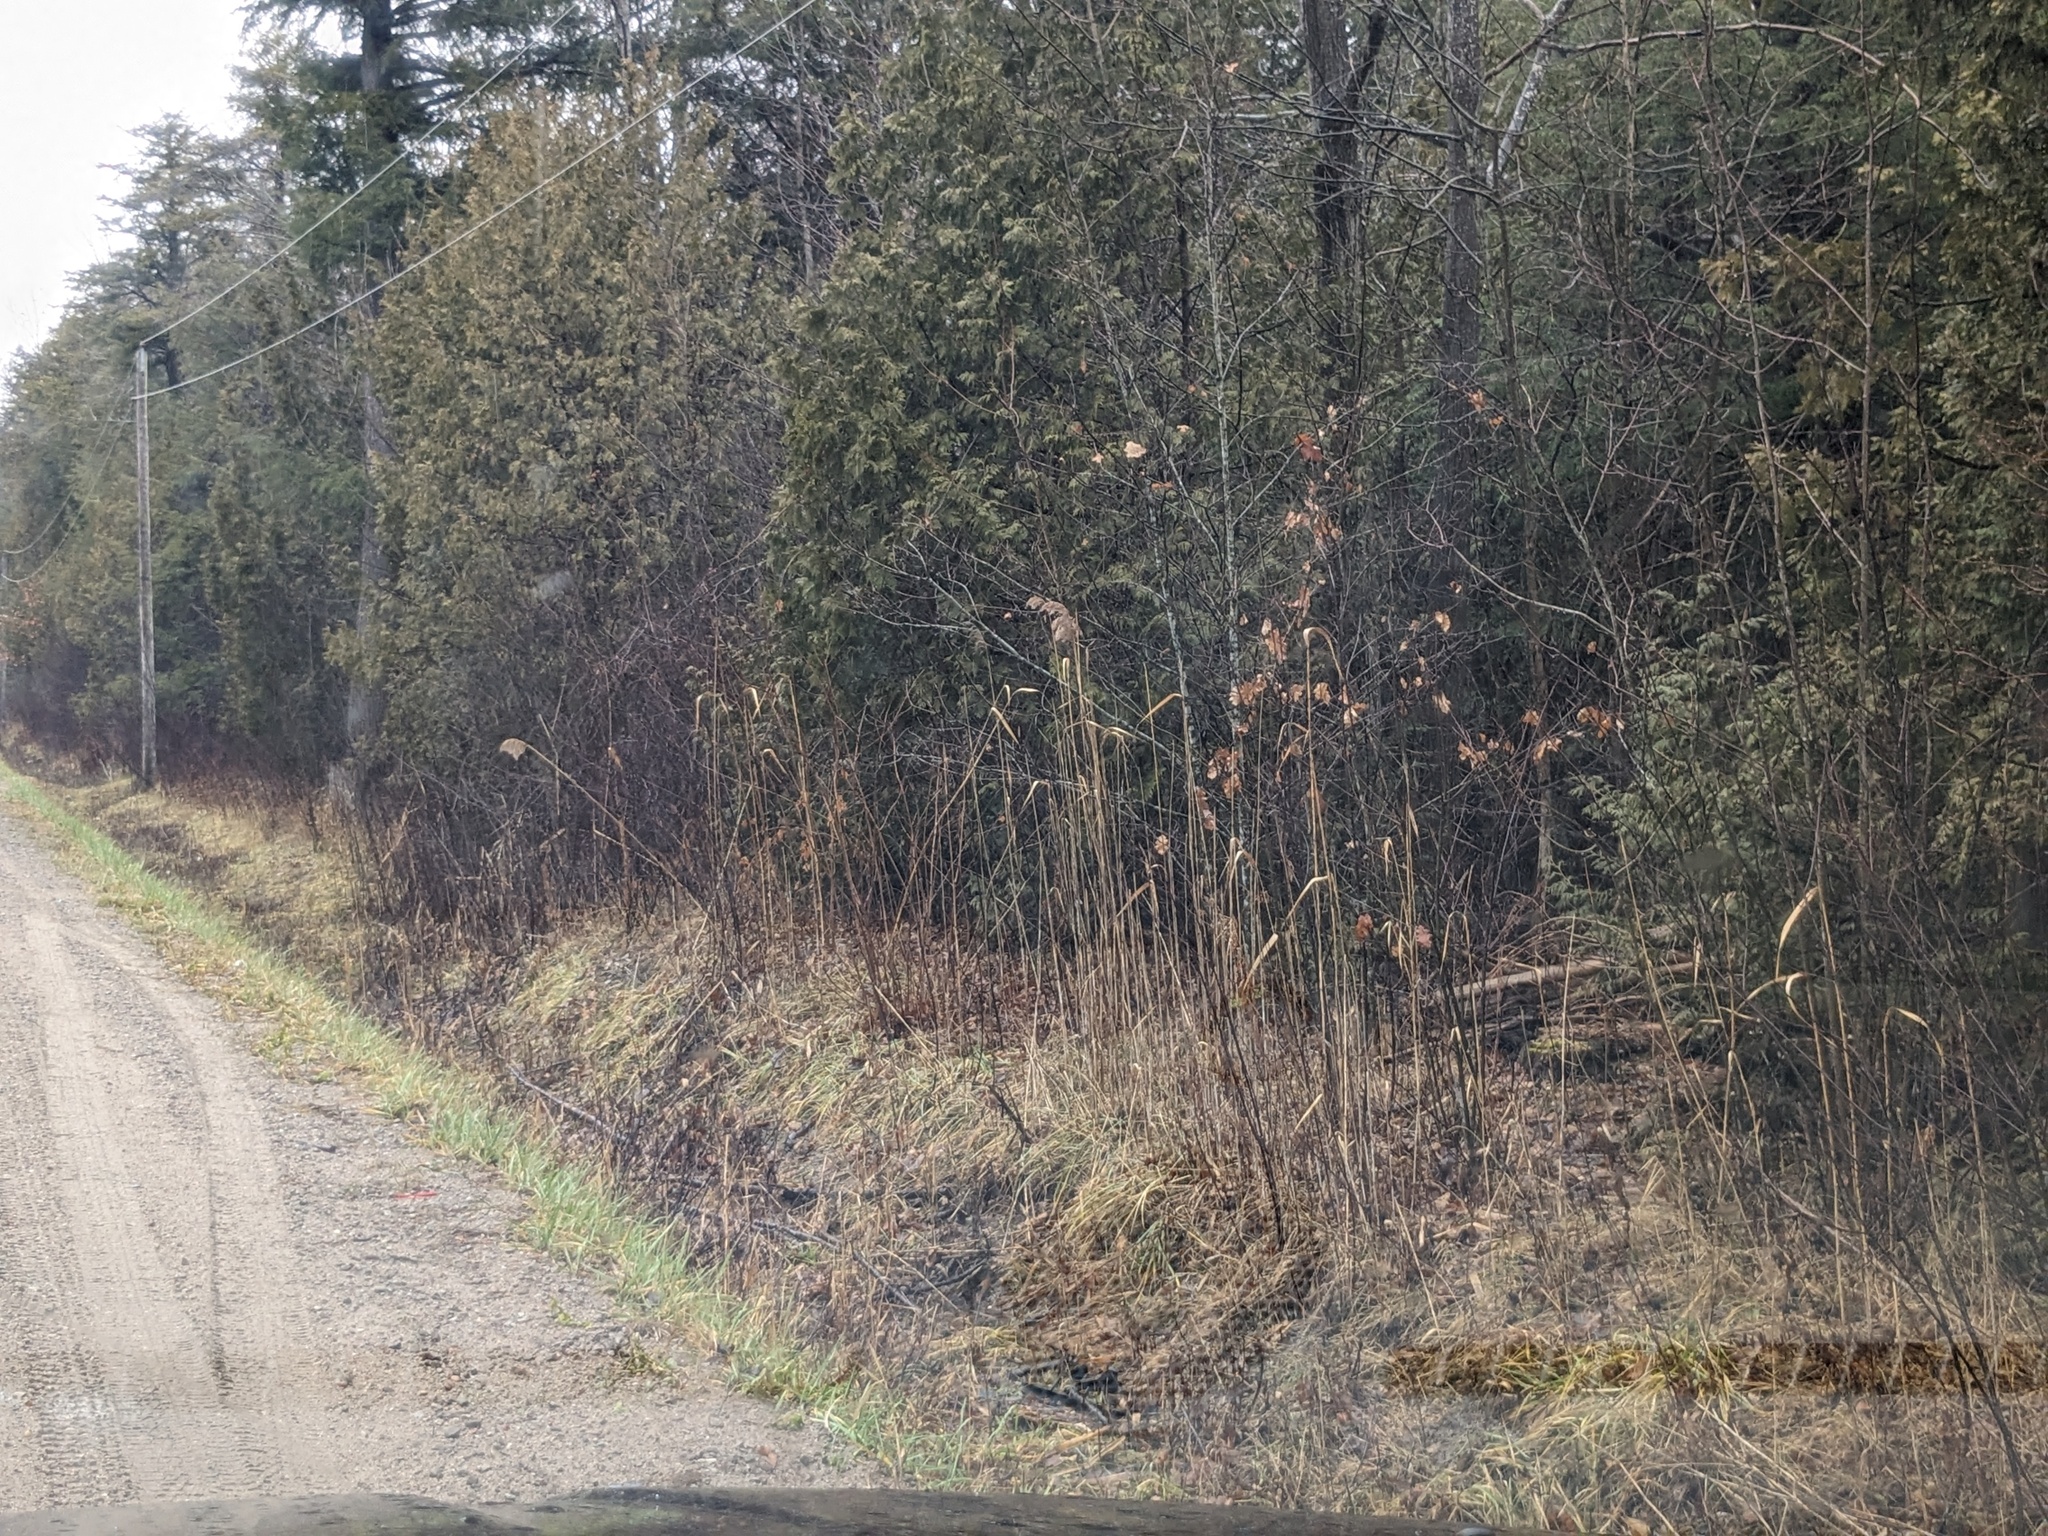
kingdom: Plantae
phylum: Tracheophyta
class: Liliopsida
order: Poales
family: Poaceae
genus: Phragmites
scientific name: Phragmites australis
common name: Common reed
